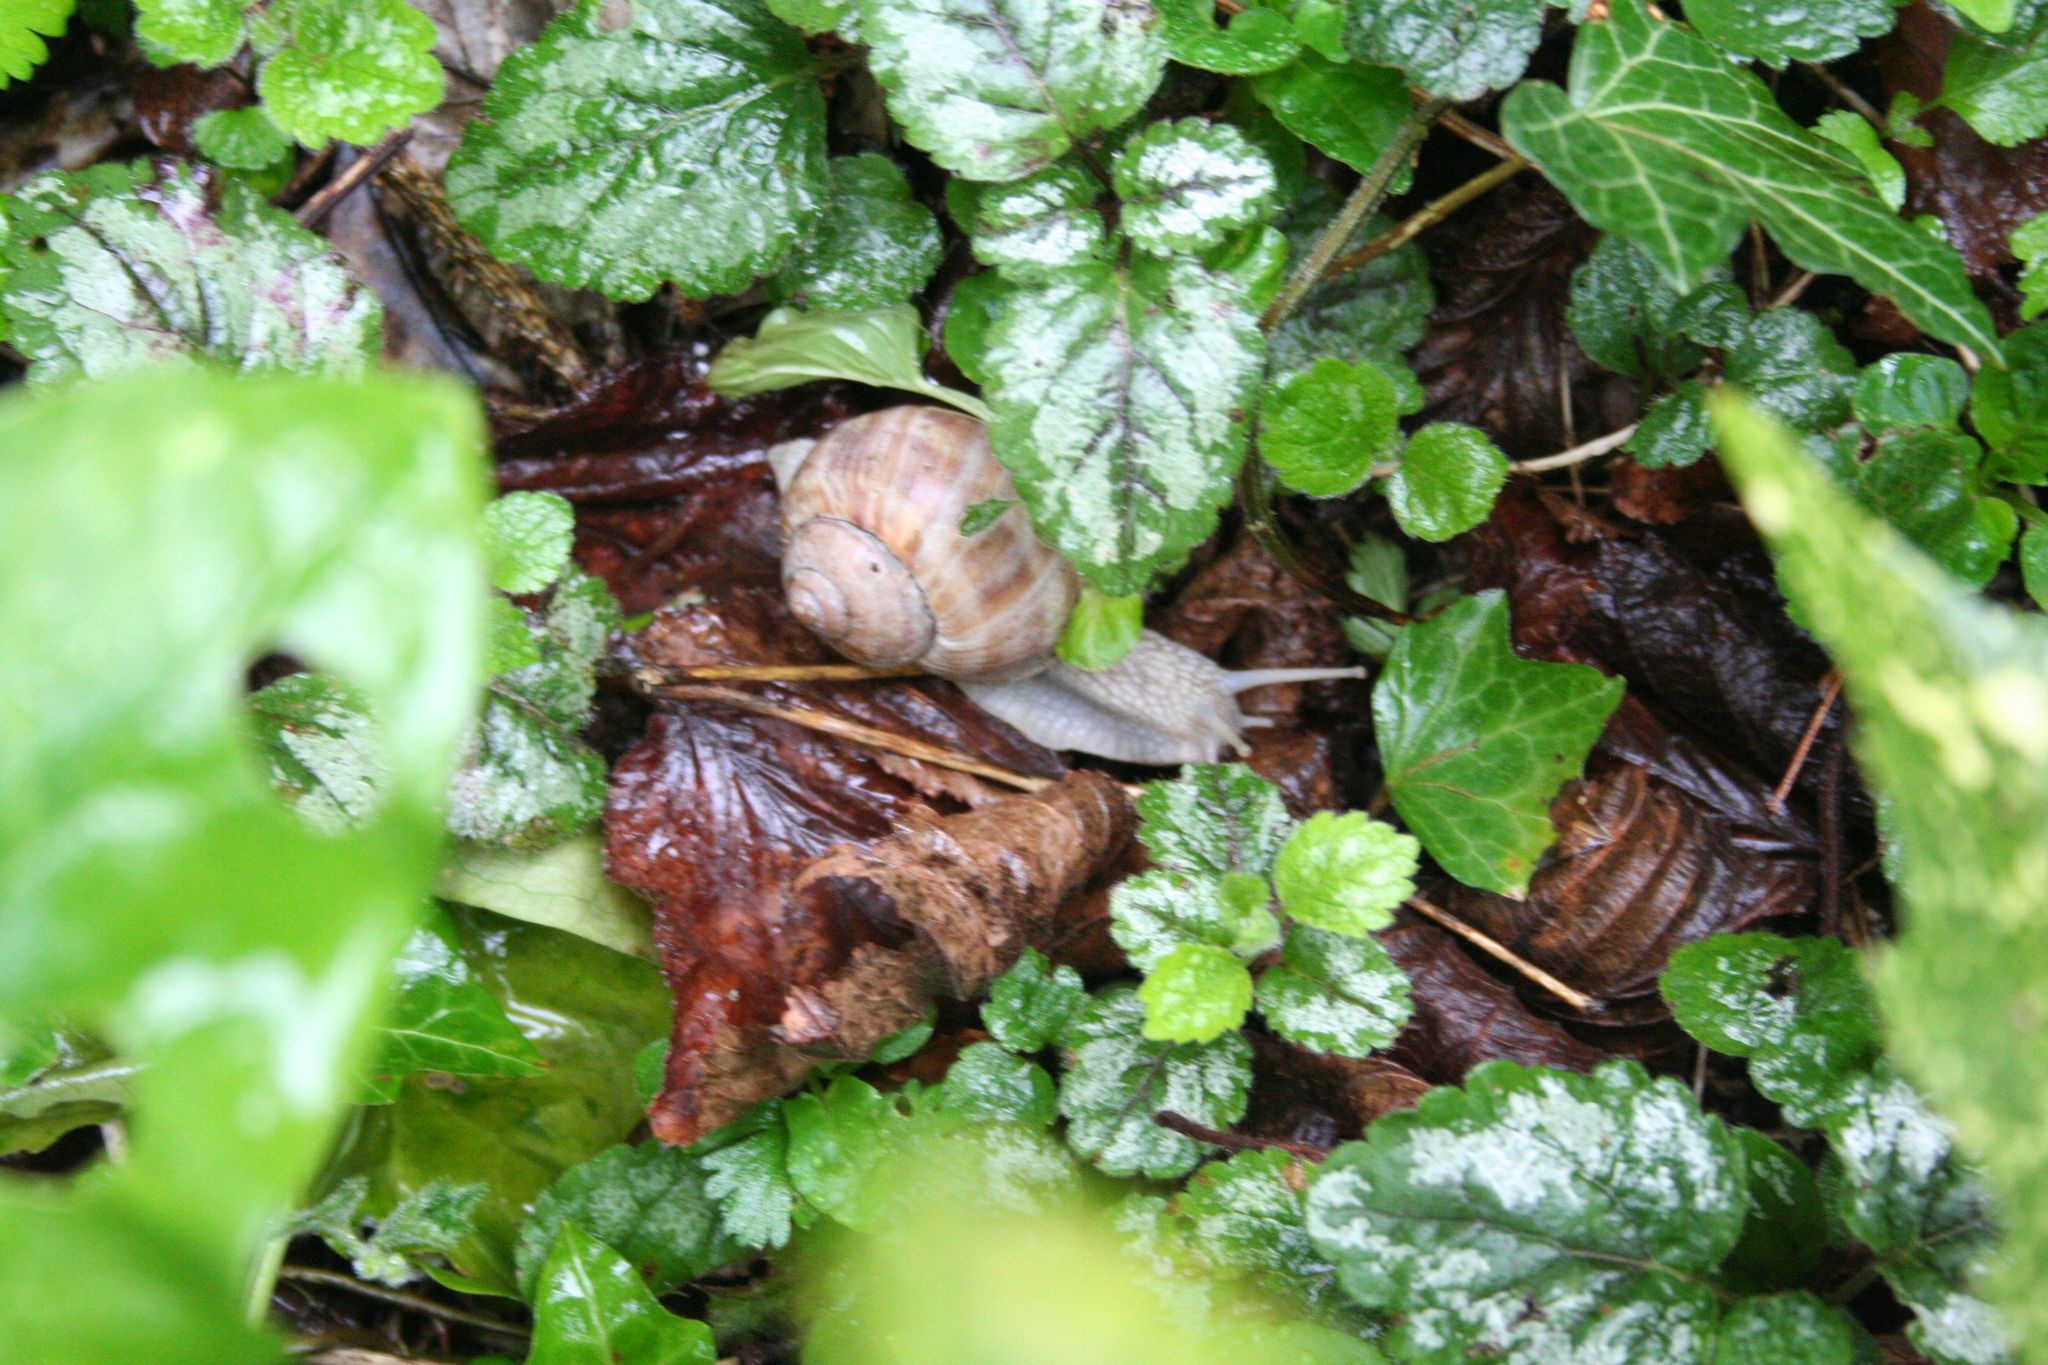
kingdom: Animalia
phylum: Mollusca
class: Gastropoda
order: Stylommatophora
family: Helicidae
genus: Helix
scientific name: Helix pomatia
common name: Roman snail
